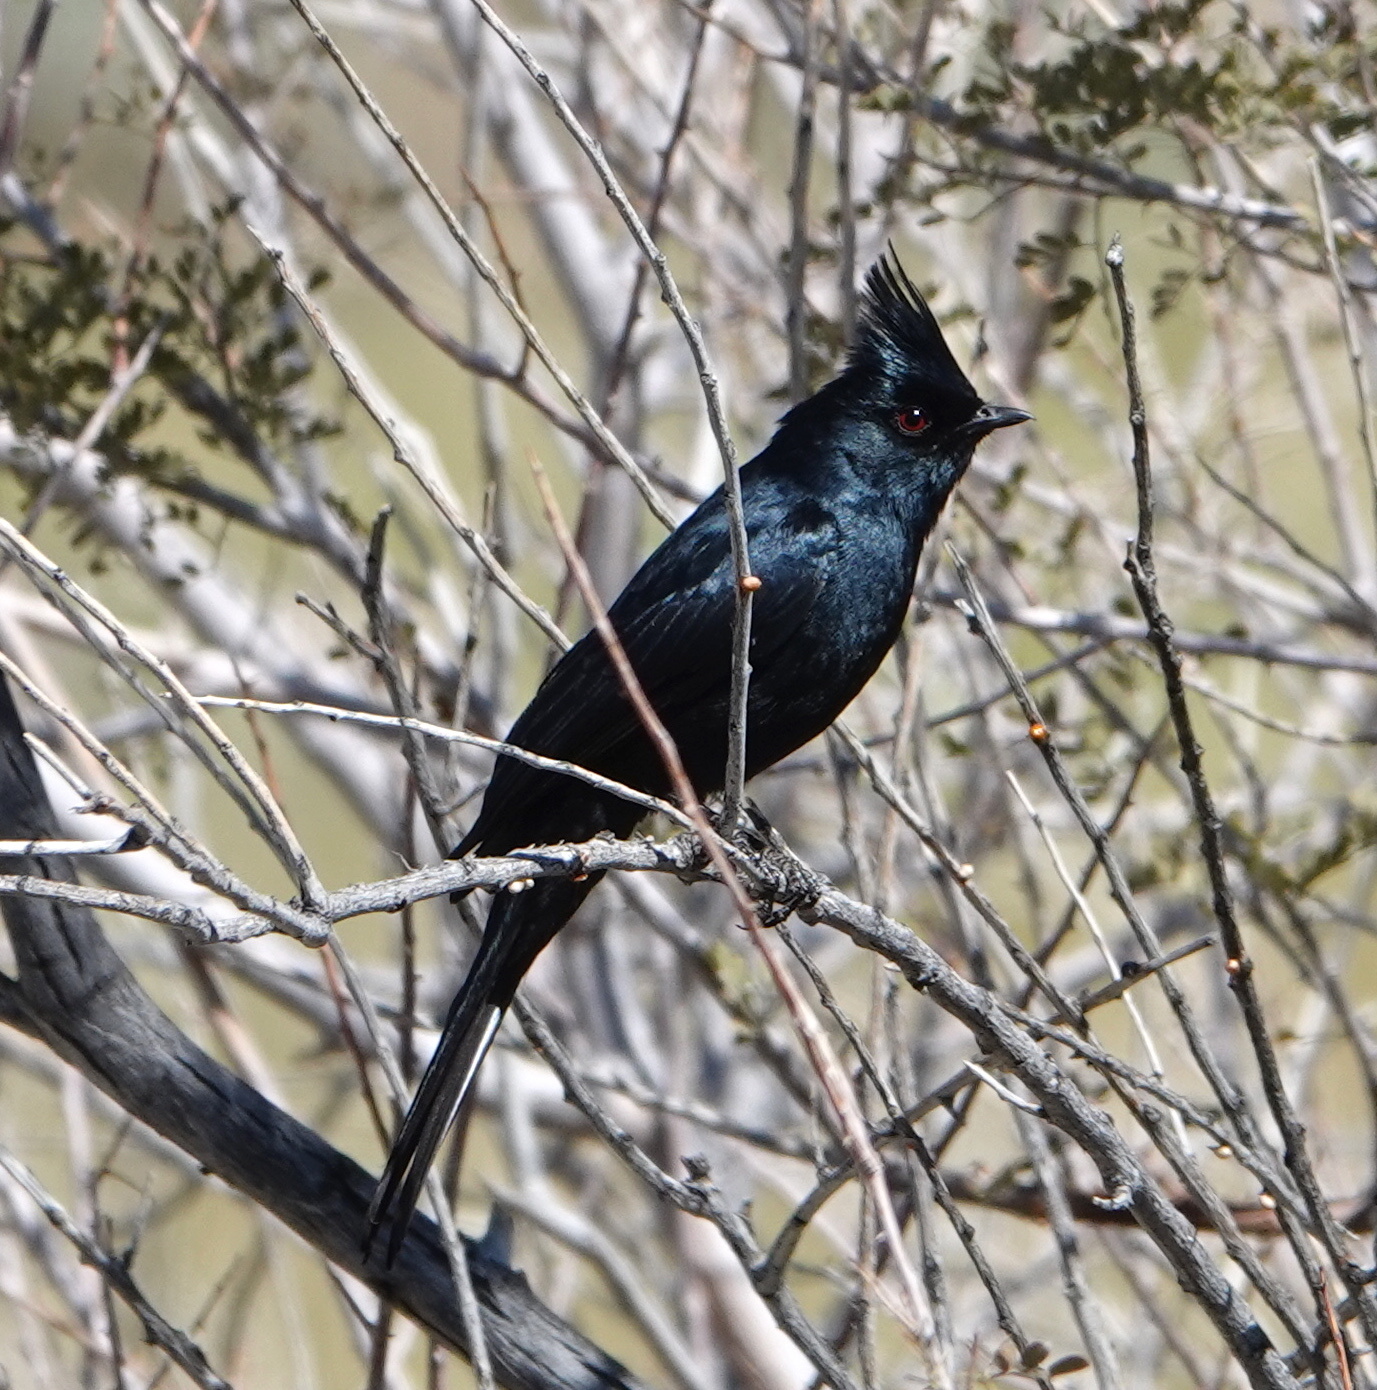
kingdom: Animalia
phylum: Chordata
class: Aves
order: Passeriformes
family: Ptilogonatidae
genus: Phainopepla
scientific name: Phainopepla nitens
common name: Phainopepla
